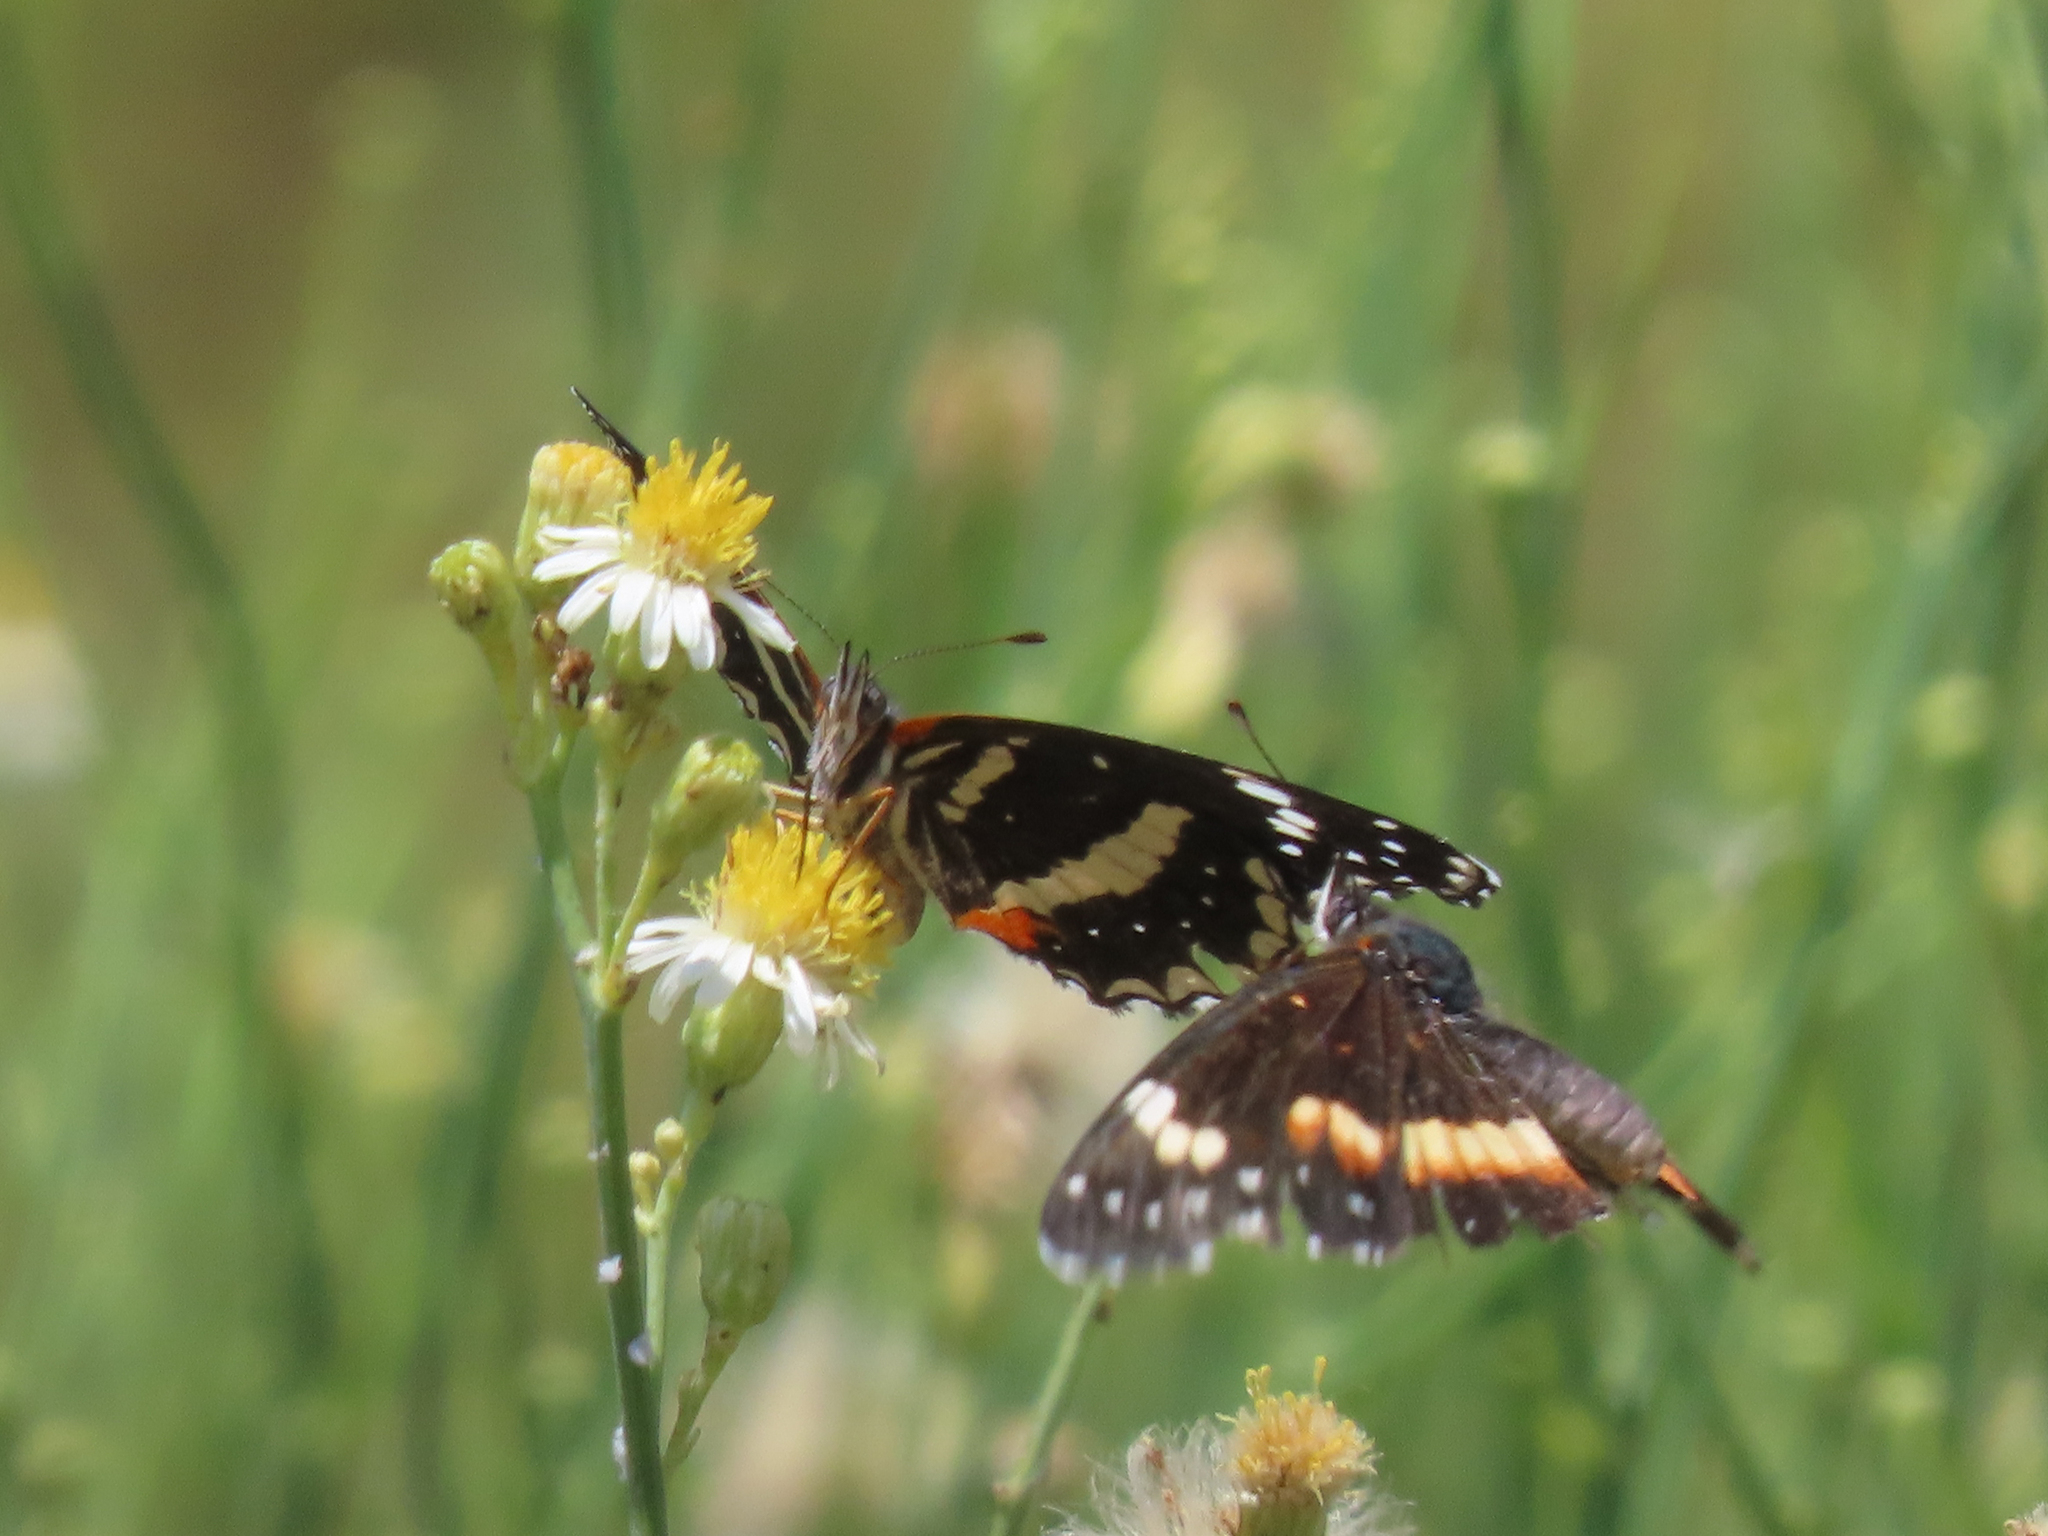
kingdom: Animalia
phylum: Arthropoda
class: Insecta
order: Lepidoptera
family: Nymphalidae
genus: Chlosyne
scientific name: Chlosyne lacinia
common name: Bordered patch
